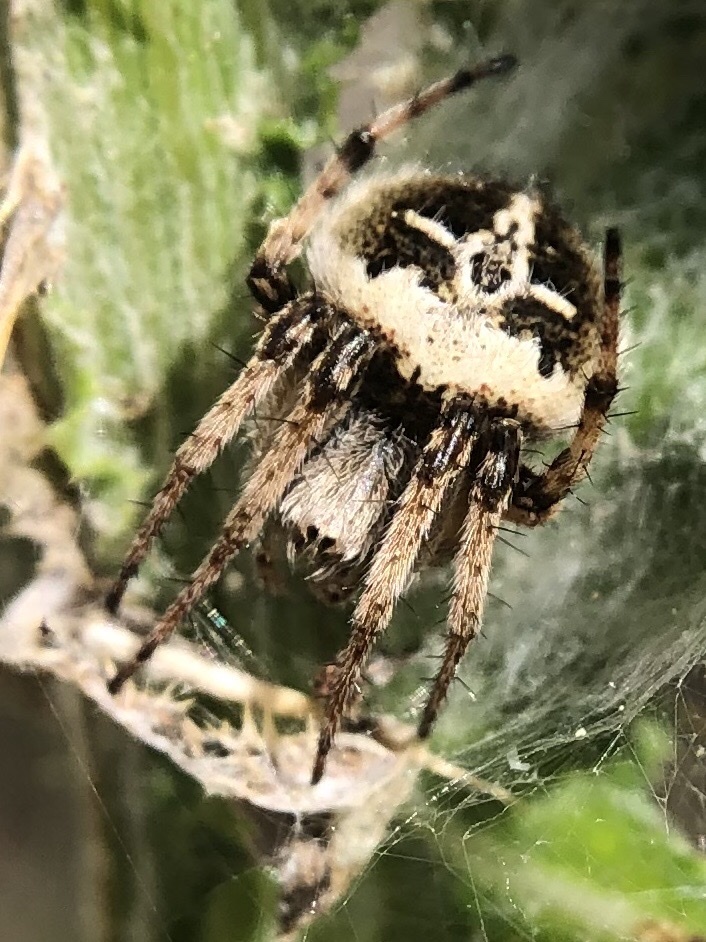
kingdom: Animalia
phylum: Arthropoda
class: Arachnida
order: Araneae
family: Araneidae
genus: Agalenatea
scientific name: Agalenatea redii
